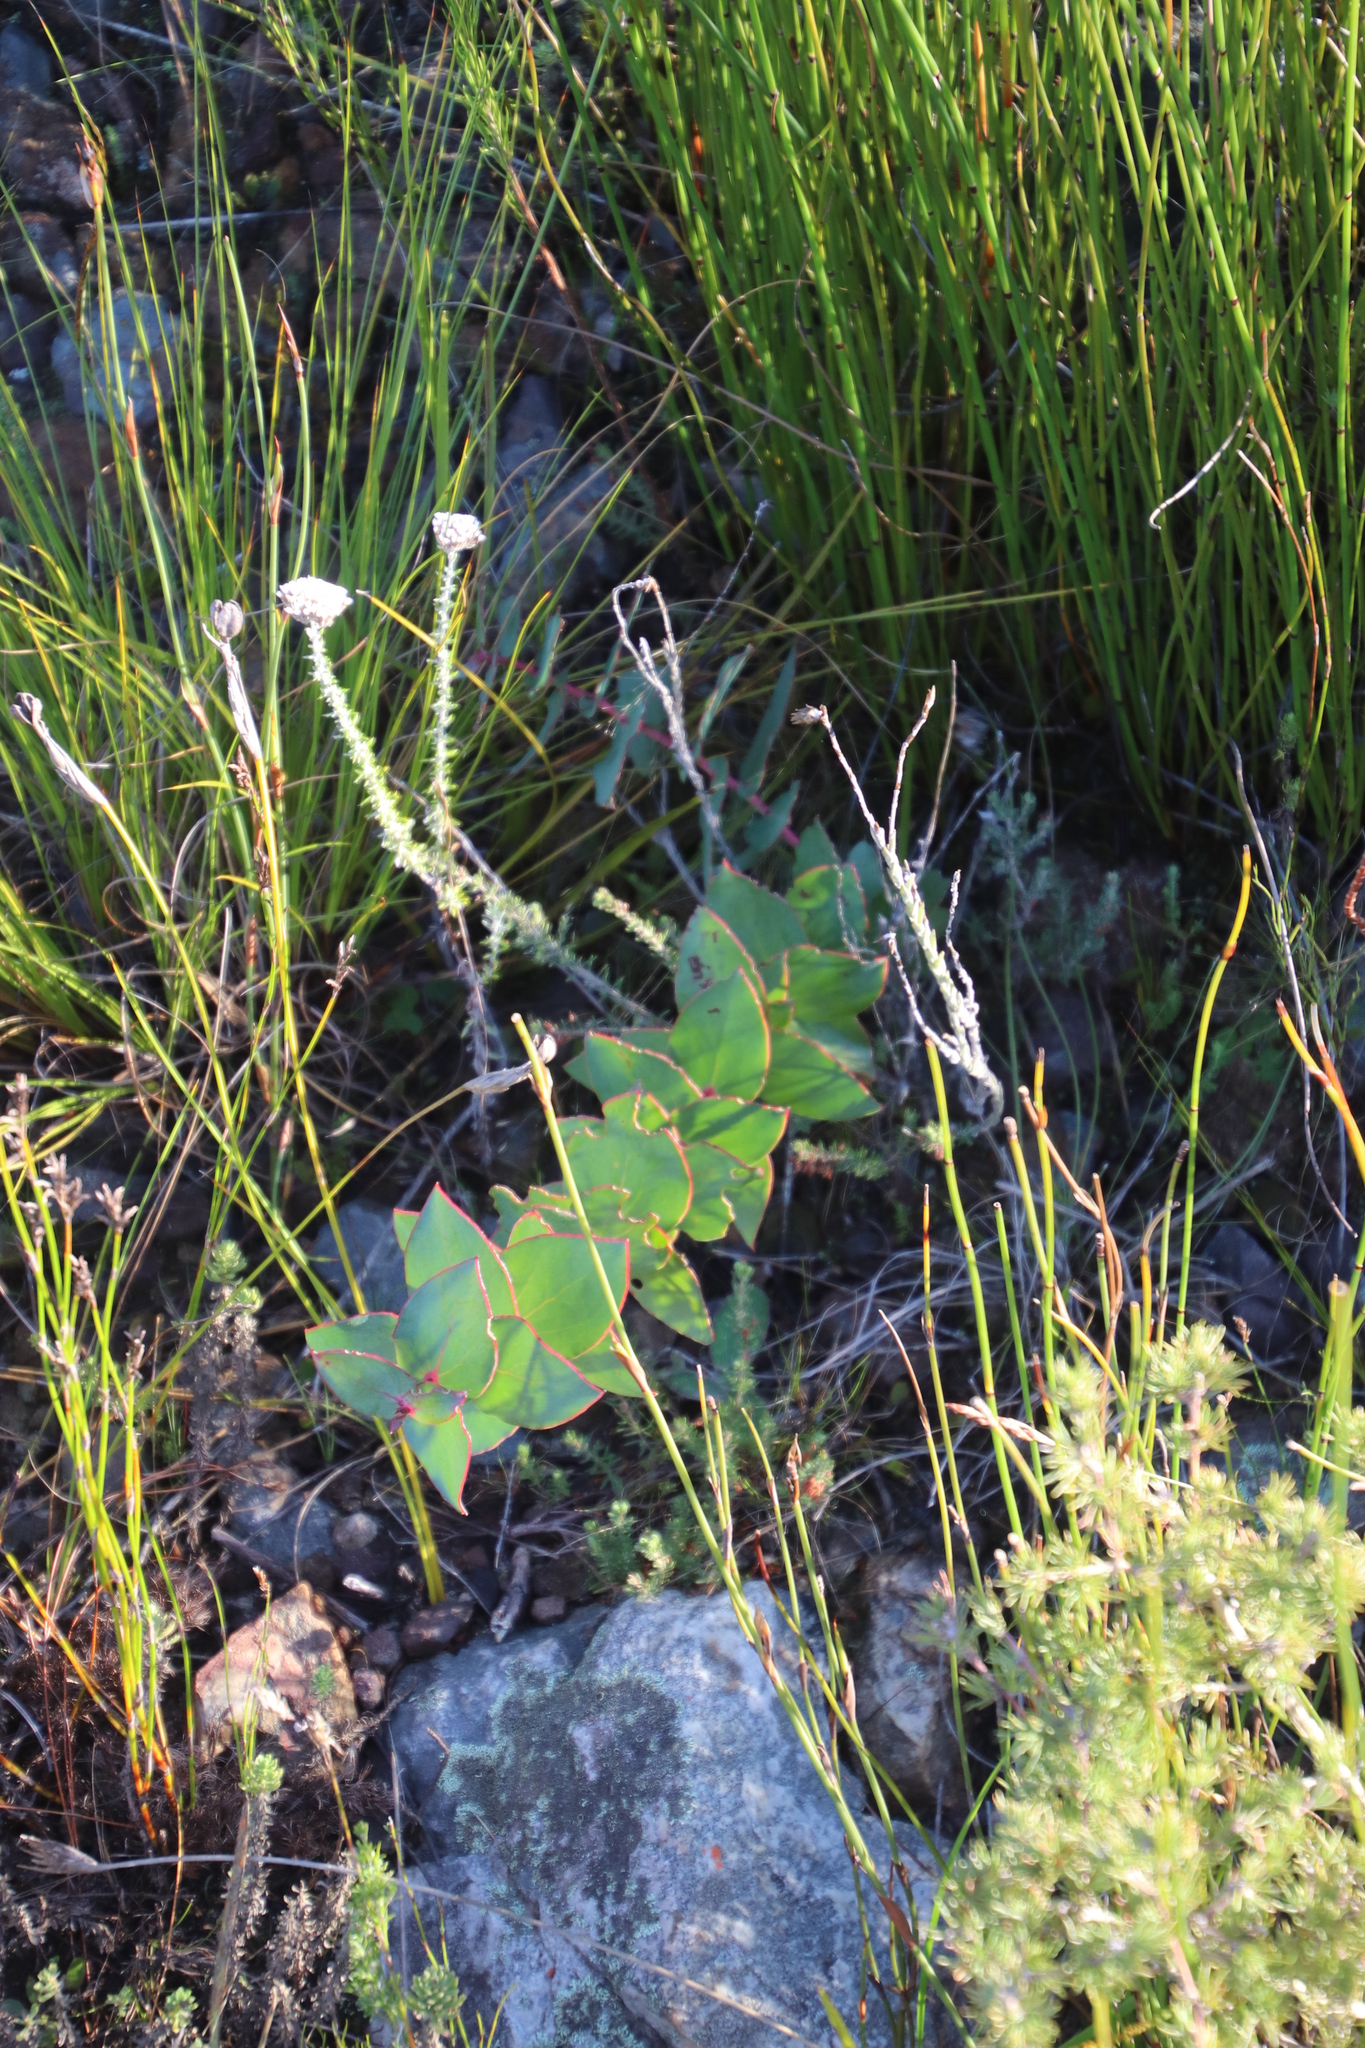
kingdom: Plantae
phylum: Tracheophyta
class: Magnoliopsida
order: Proteales
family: Proteaceae
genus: Protea
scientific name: Protea amplexicaulis
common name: Clasping-leaf sugarbush
